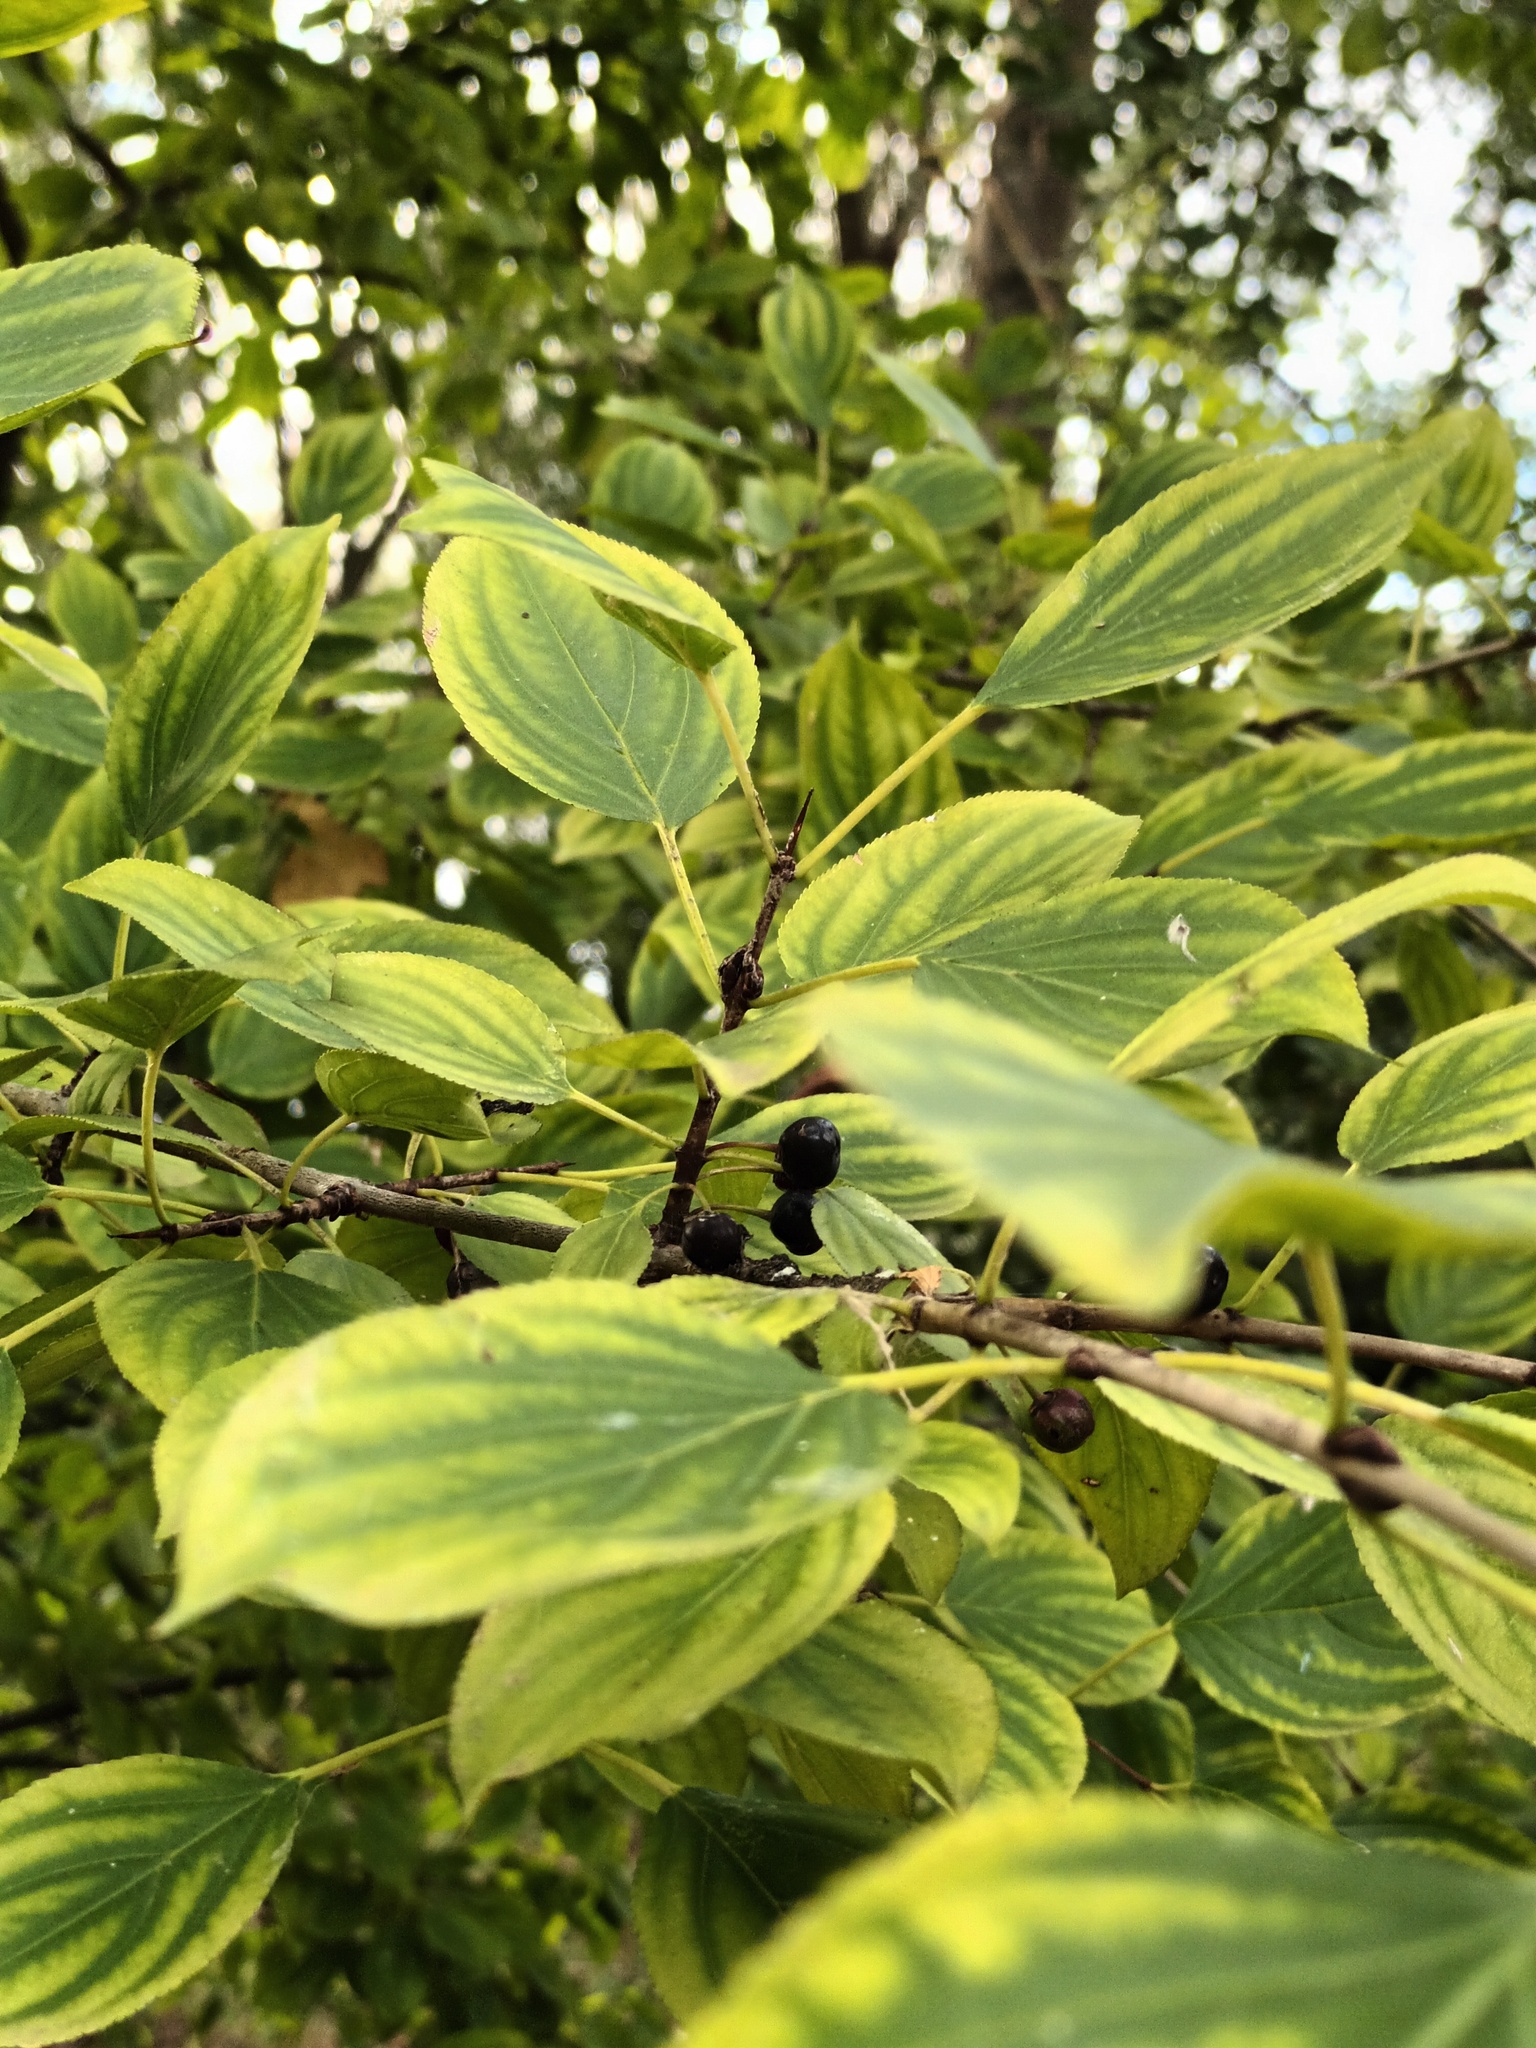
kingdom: Plantae
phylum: Tracheophyta
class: Magnoliopsida
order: Rosales
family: Rhamnaceae
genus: Rhamnus
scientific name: Rhamnus cathartica
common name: Common buckthorn
